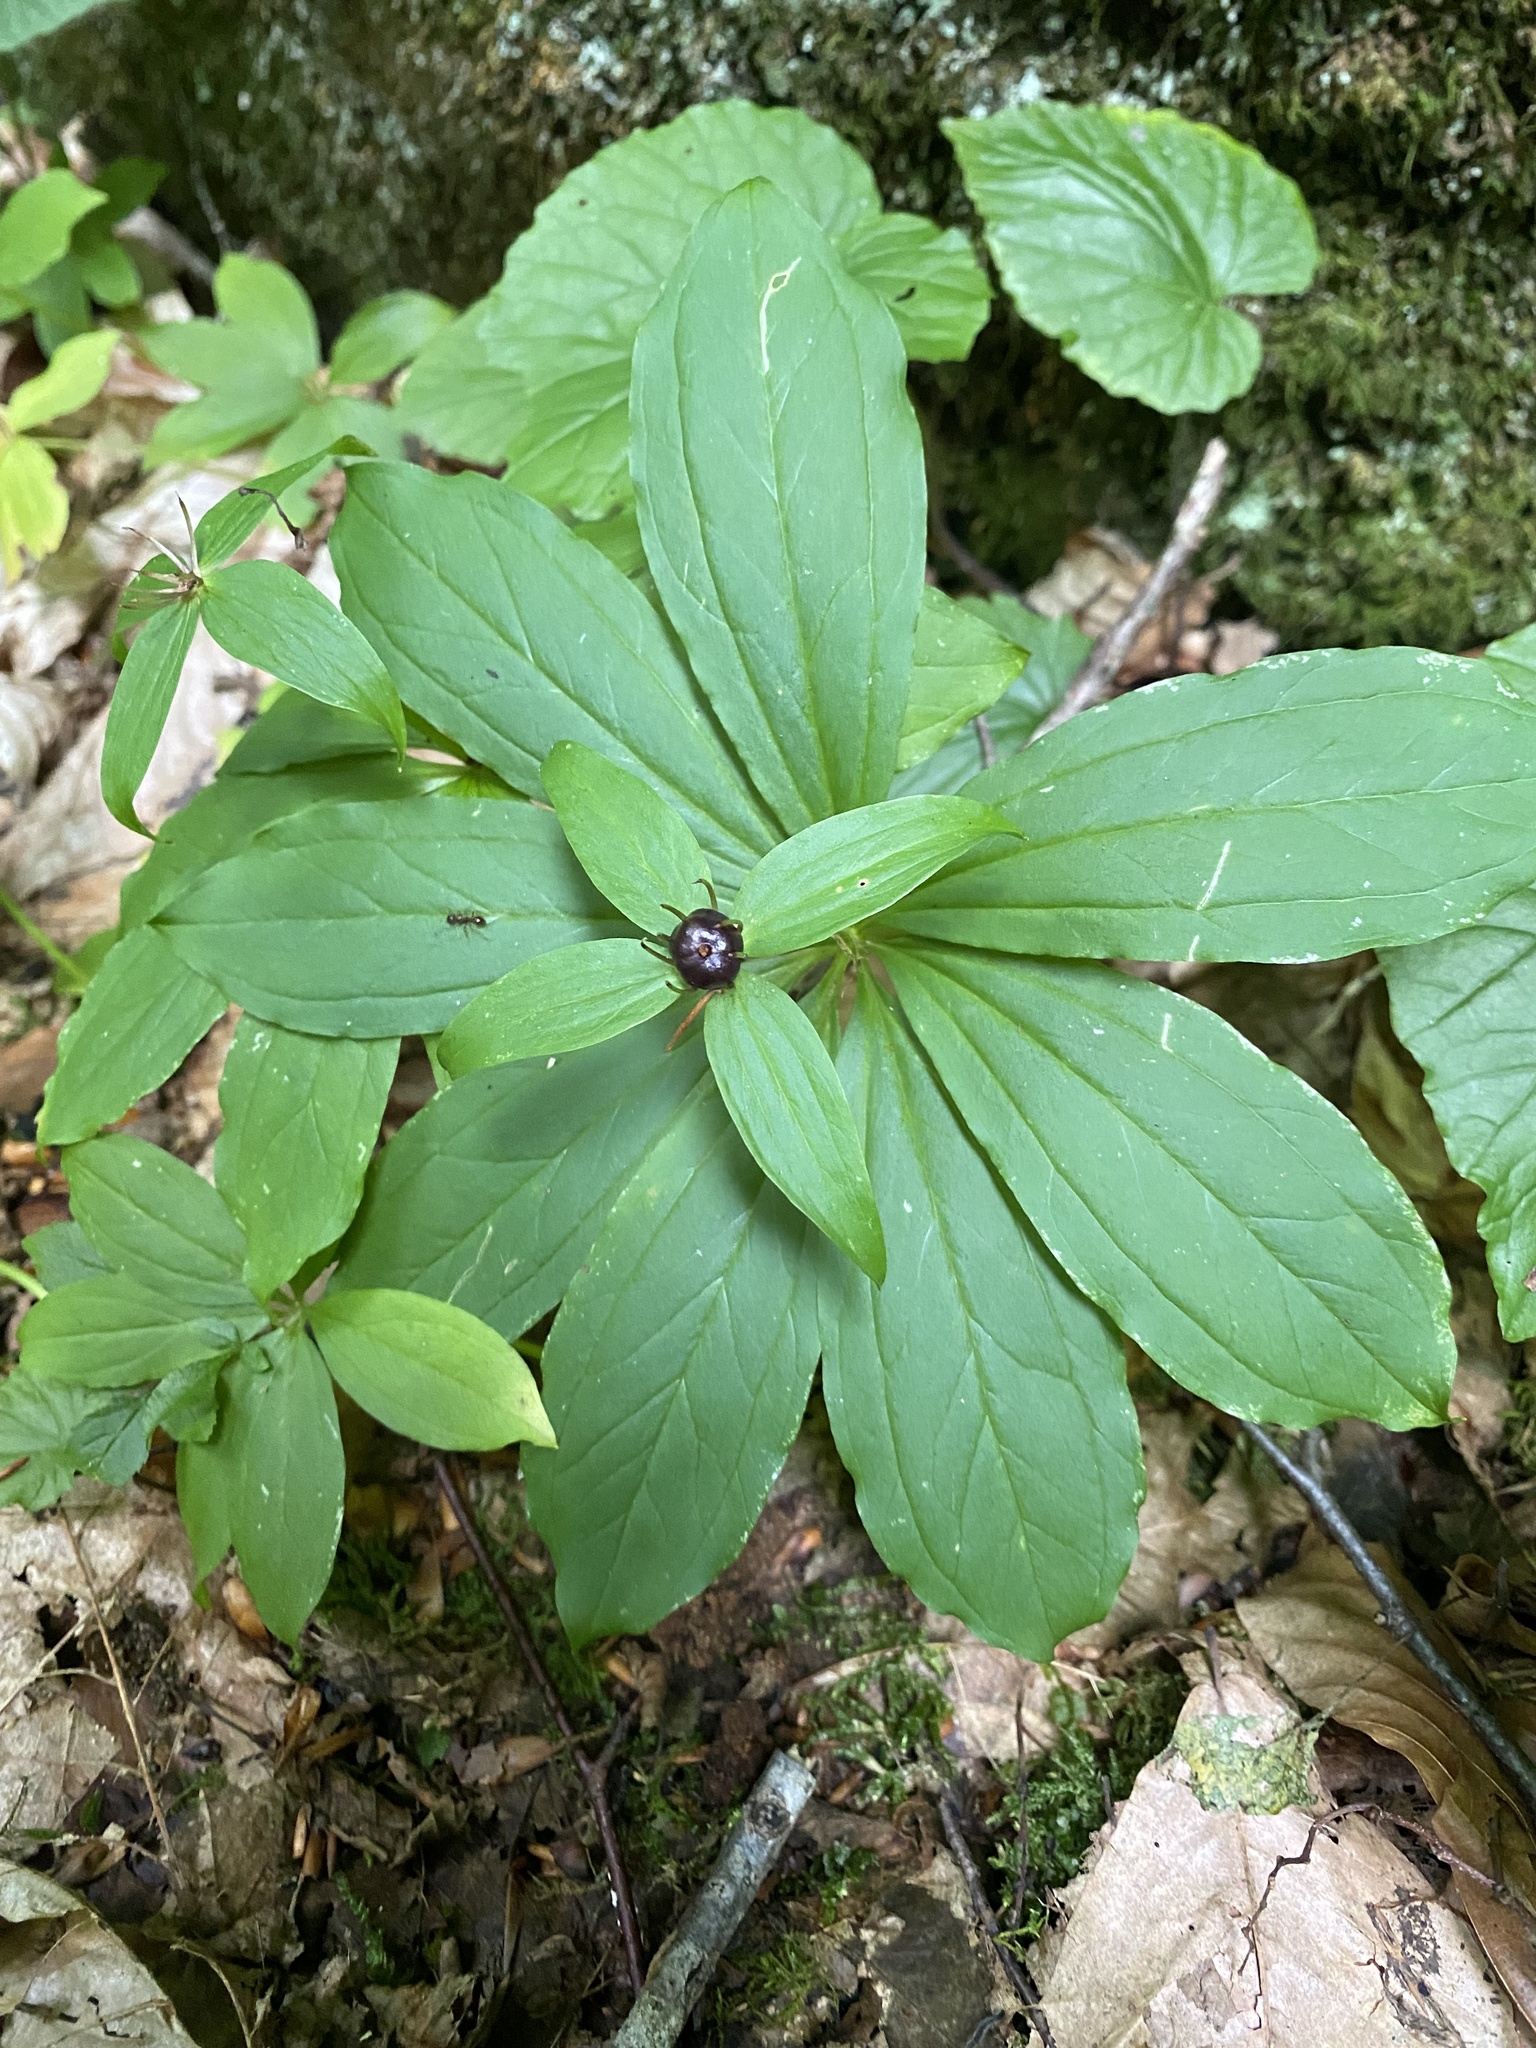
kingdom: Plantae
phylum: Tracheophyta
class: Liliopsida
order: Liliales
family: Melanthiaceae
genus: Paris
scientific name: Paris incompleta
